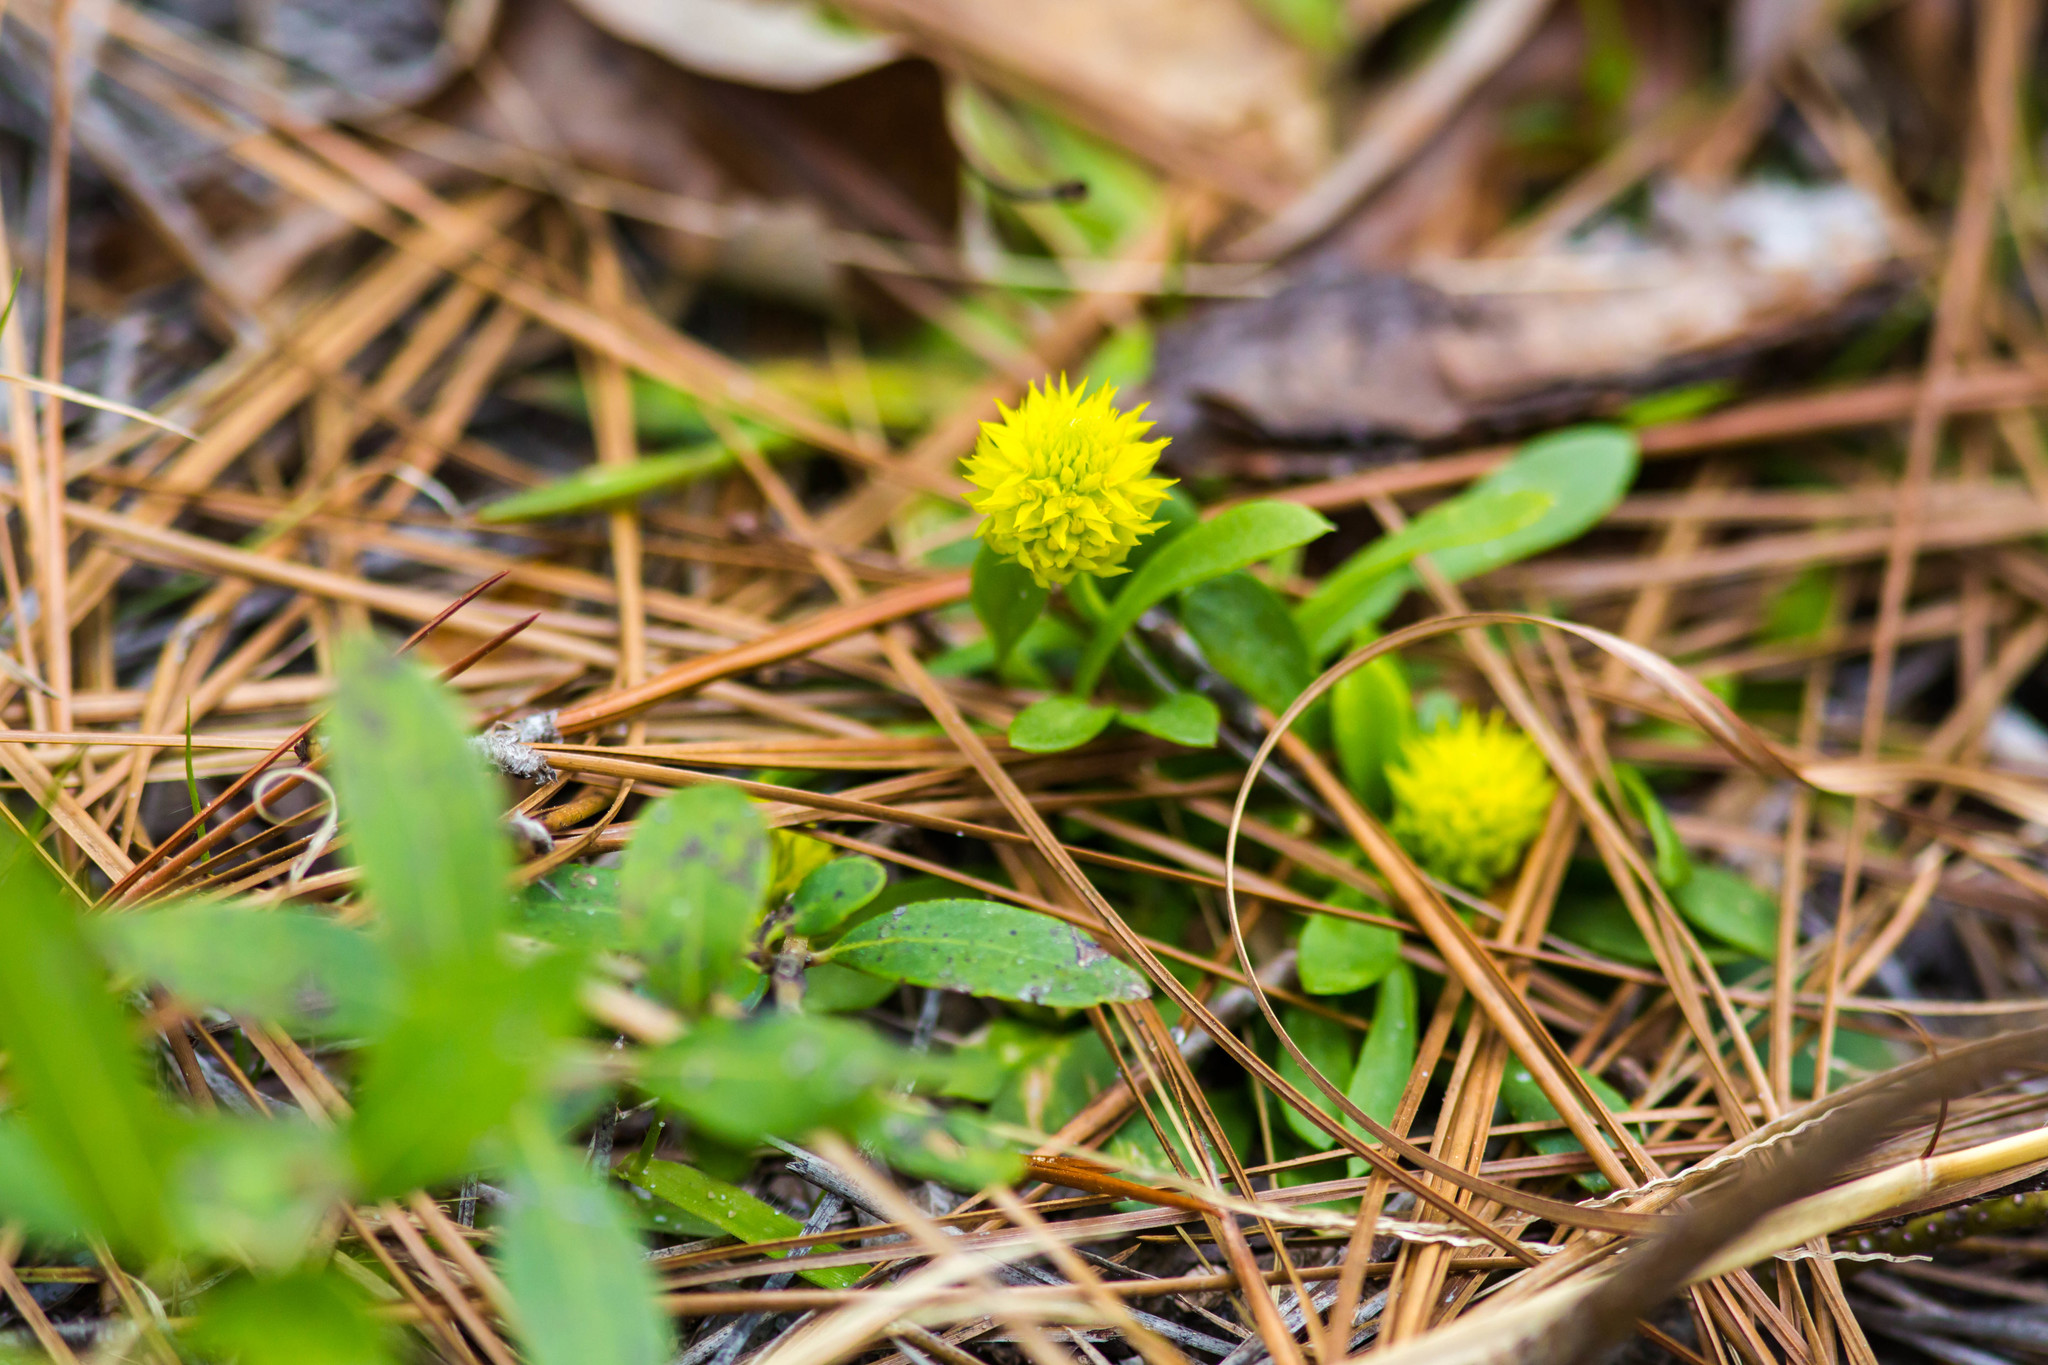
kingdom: Plantae
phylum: Tracheophyta
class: Magnoliopsida
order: Fabales
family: Polygalaceae
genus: Polygala
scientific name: Polygala nana
